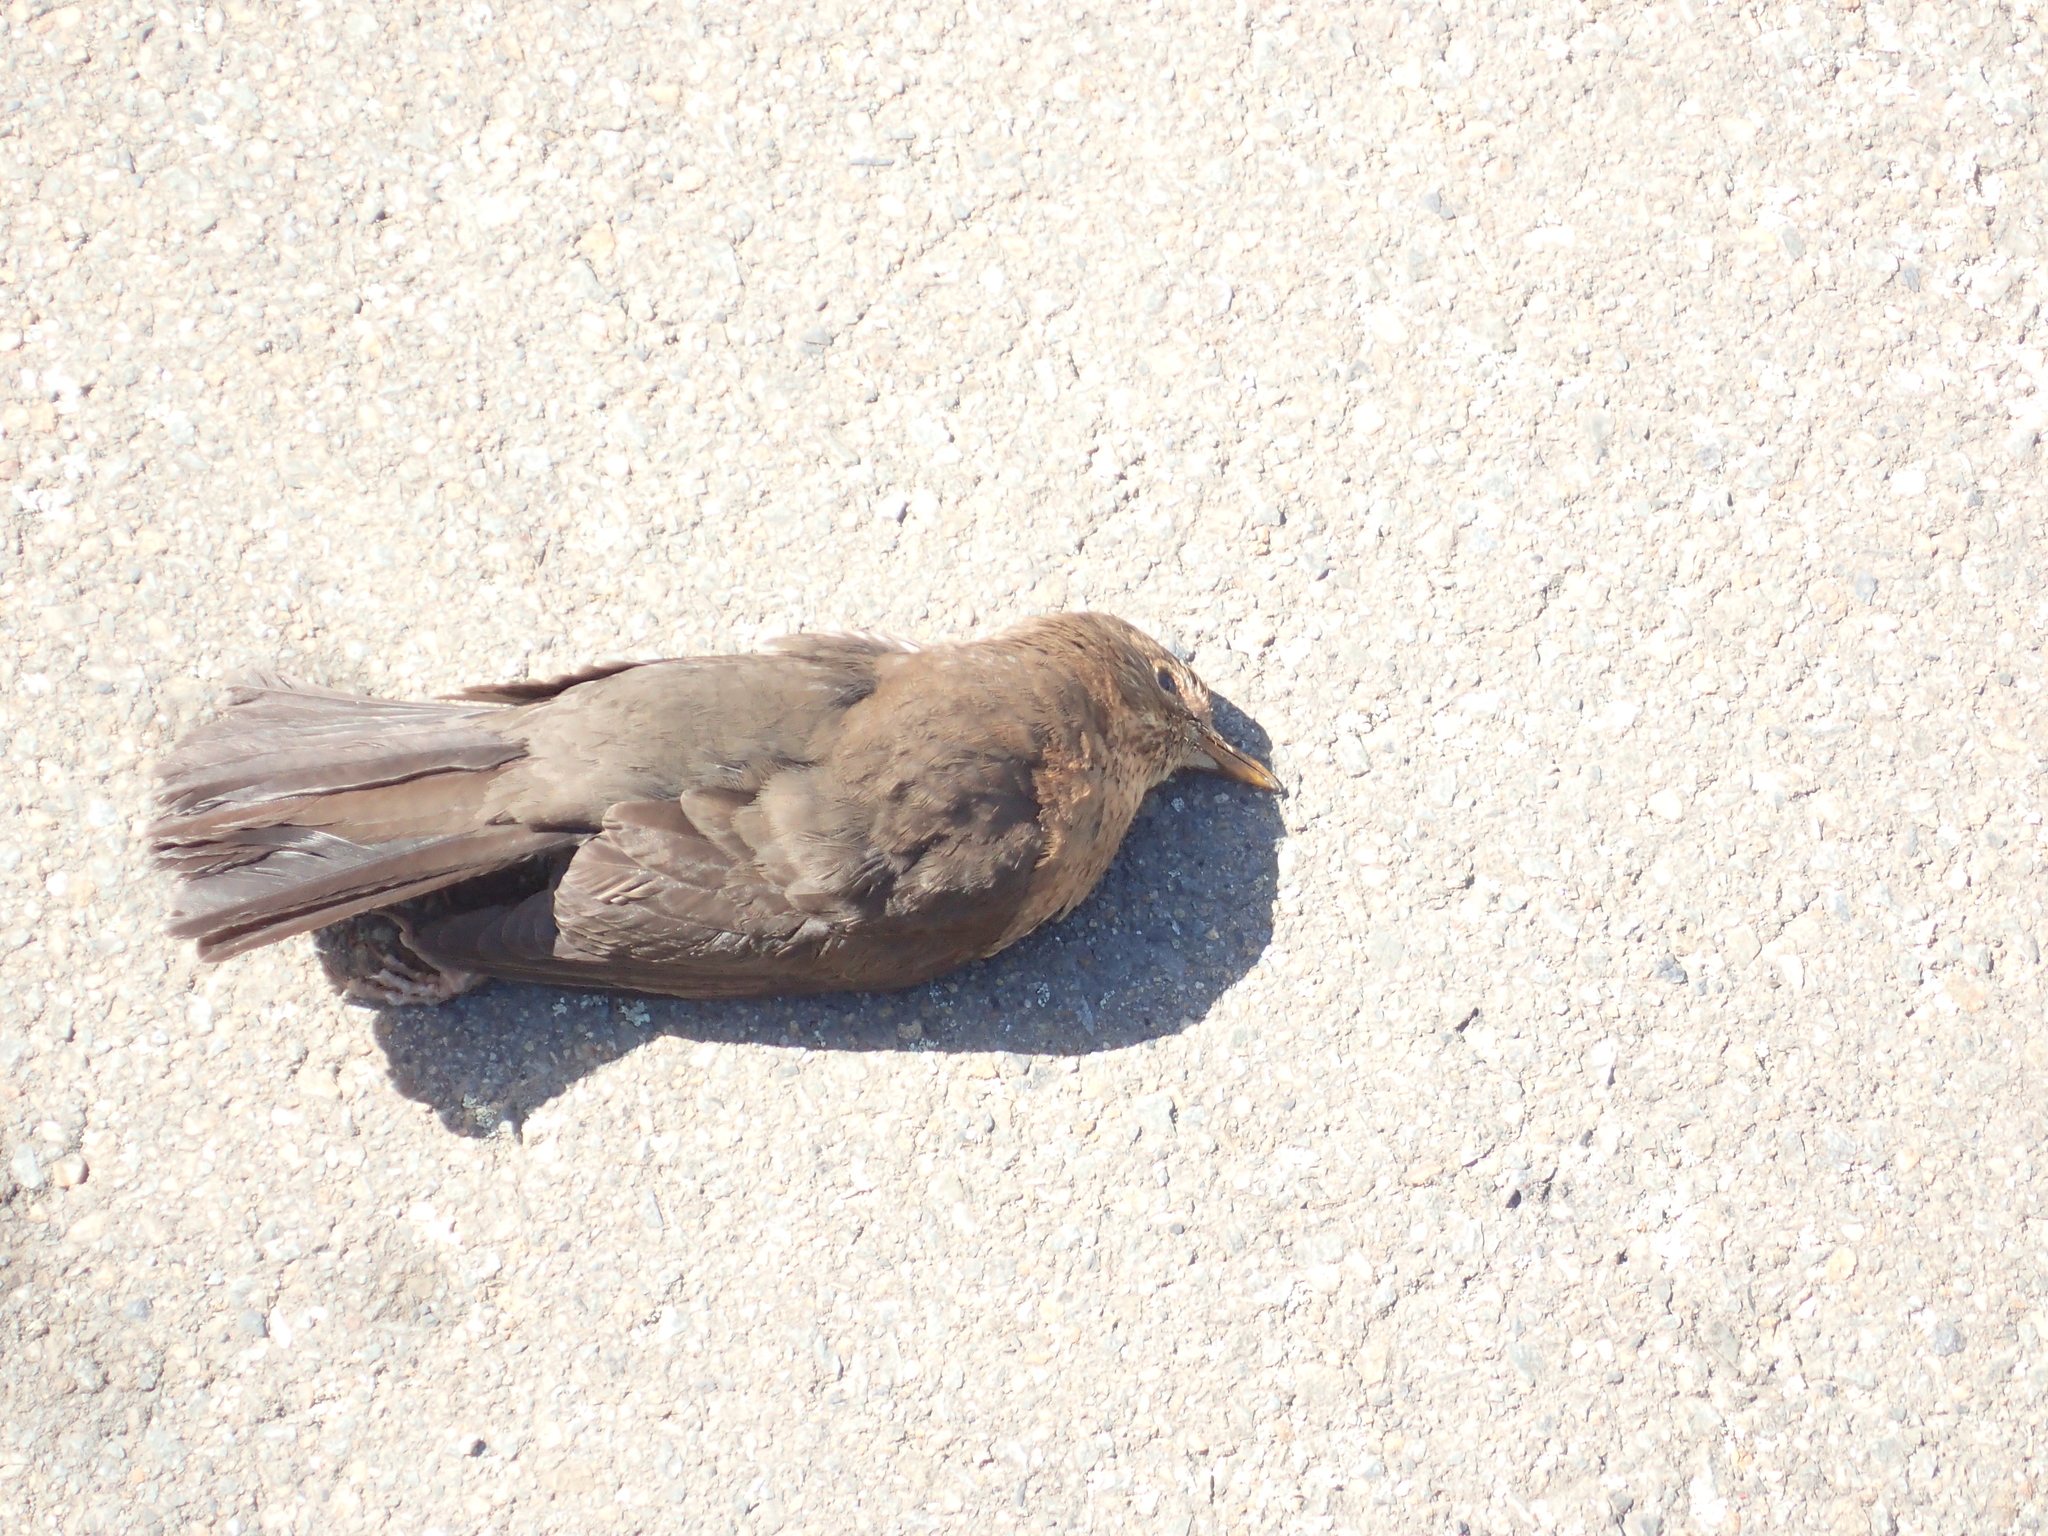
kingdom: Animalia
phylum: Chordata
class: Aves
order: Passeriformes
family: Turdidae
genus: Turdus
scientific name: Turdus merula
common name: Common blackbird
